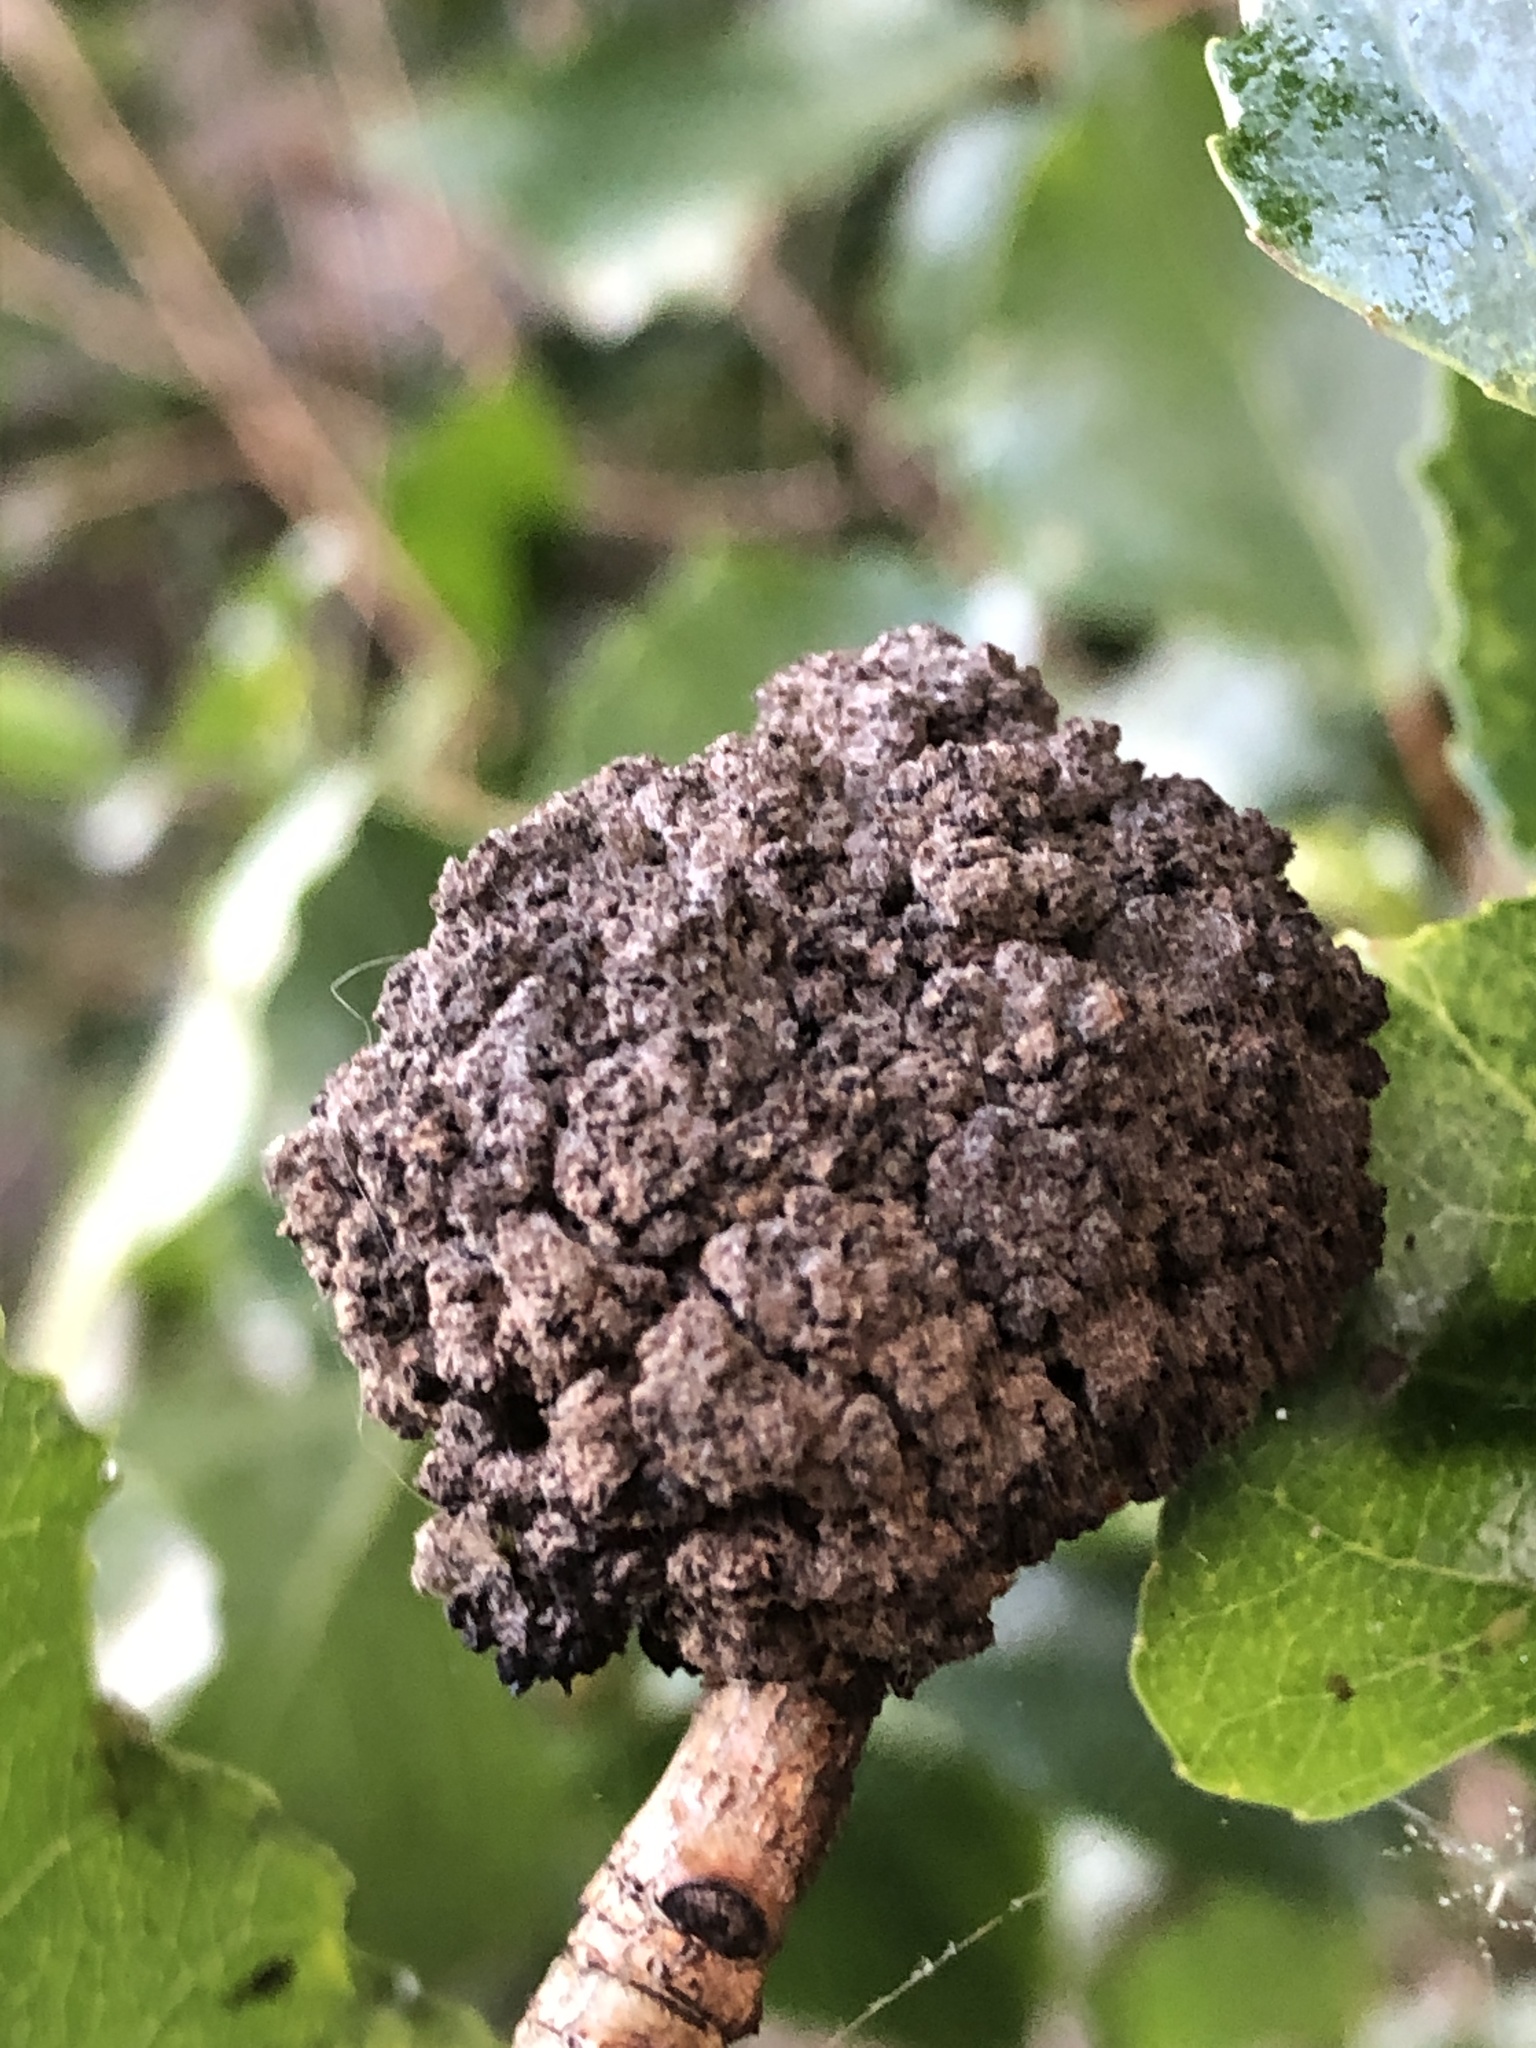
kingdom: Animalia
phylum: Arthropoda
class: Arachnida
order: Trombidiformes
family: Eriophyidae
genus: Aceria
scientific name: Aceria populi
